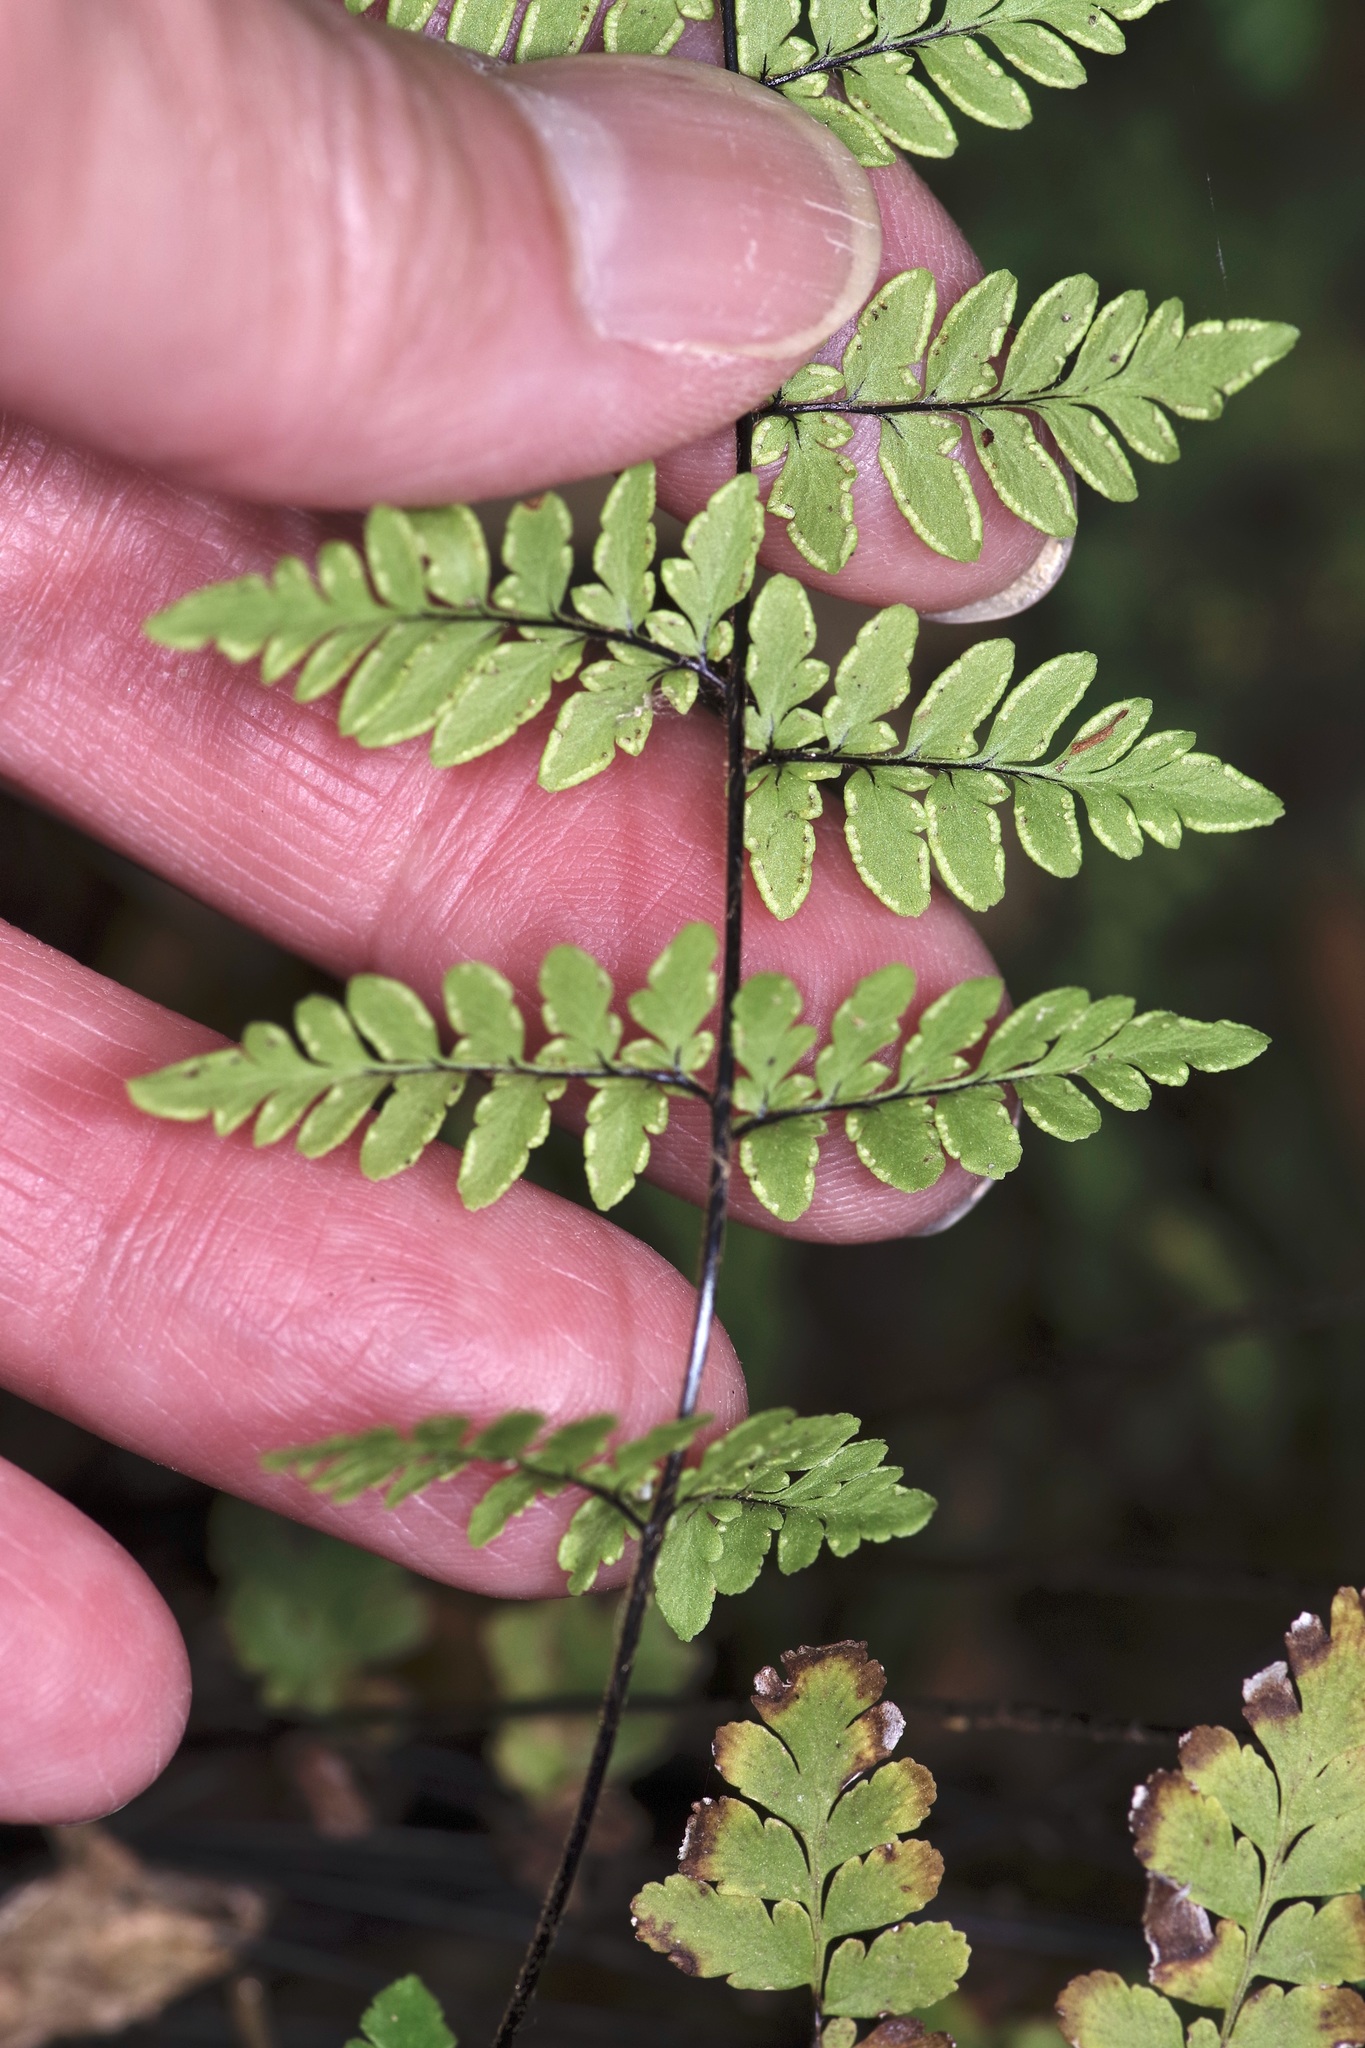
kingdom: Plantae
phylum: Tracheophyta
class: Polypodiopsida
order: Polypodiales
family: Pteridaceae
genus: Myriopteris
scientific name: Myriopteris alabamensis
